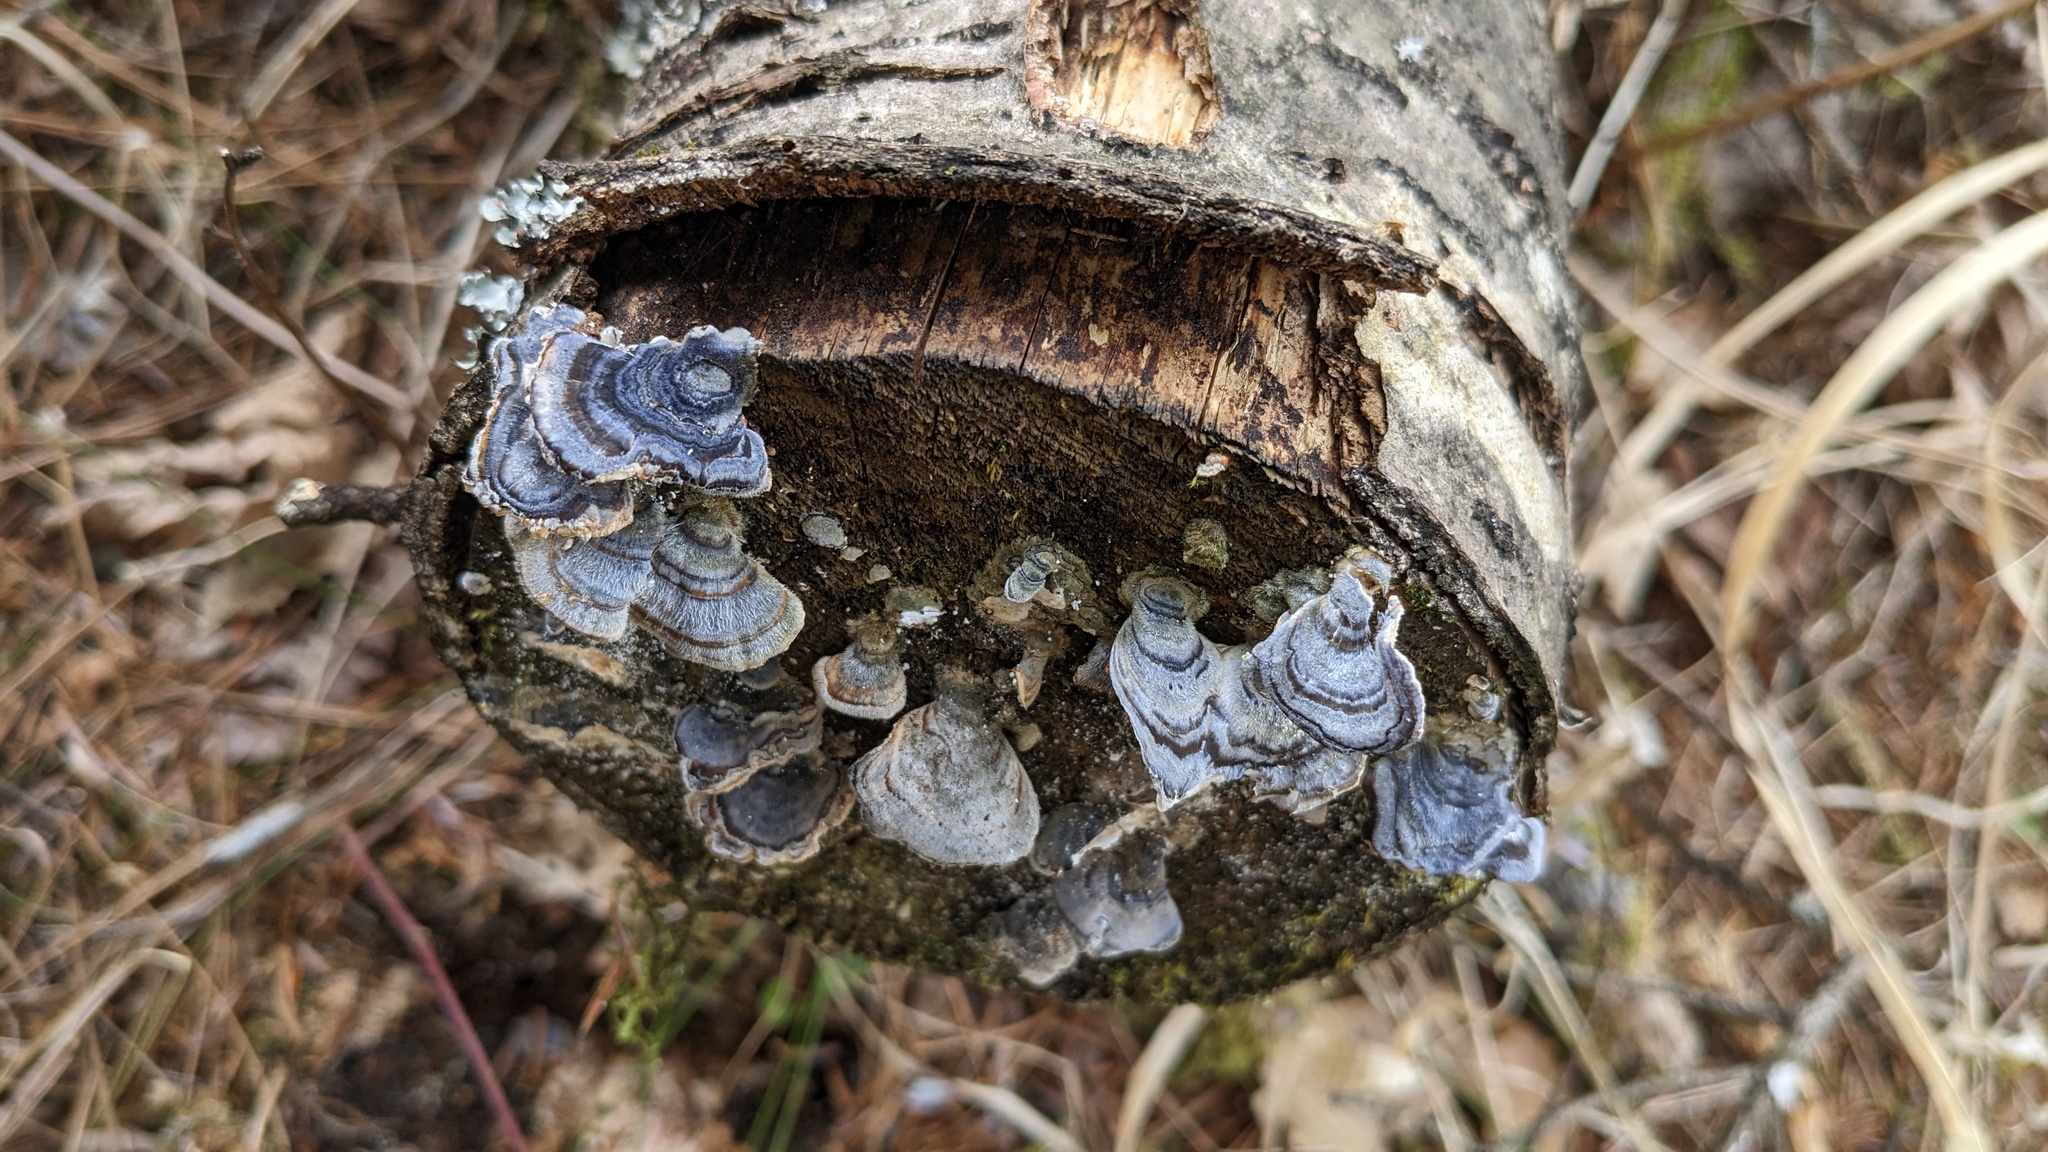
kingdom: Fungi
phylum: Basidiomycota
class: Agaricomycetes
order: Polyporales
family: Polyporaceae
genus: Trametes
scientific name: Trametes versicolor
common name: Turkeytail
